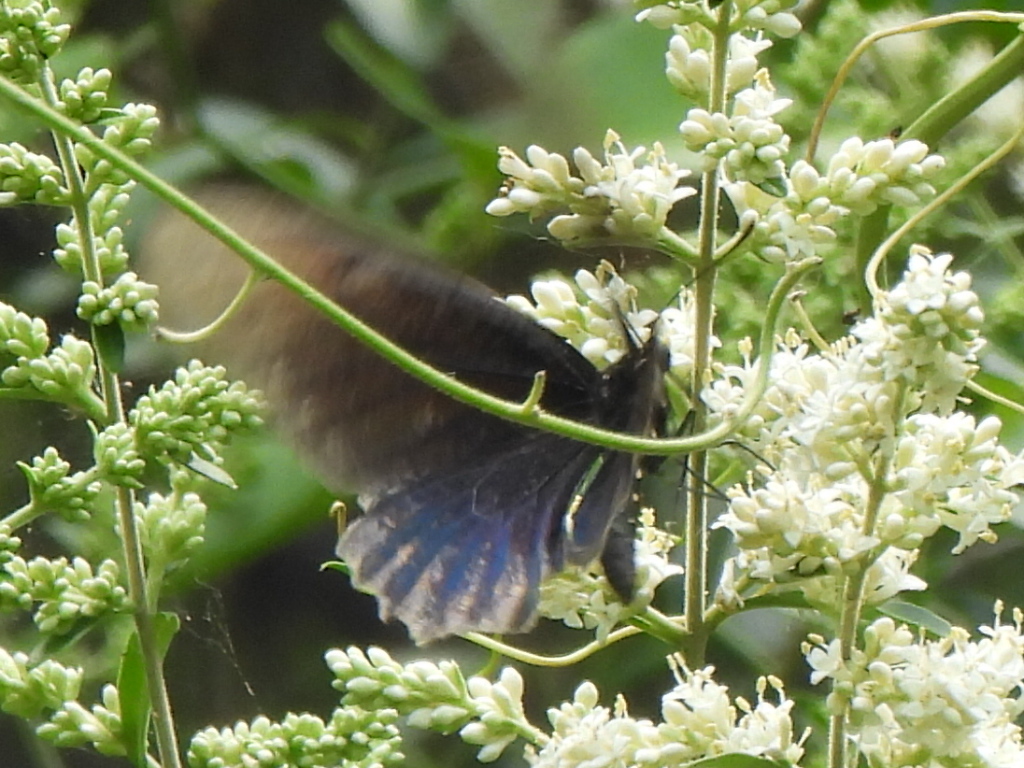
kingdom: Animalia
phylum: Arthropoda
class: Insecta
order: Lepidoptera
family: Papilionidae
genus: Battus
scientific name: Battus philenor
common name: Pipevine swallowtail
